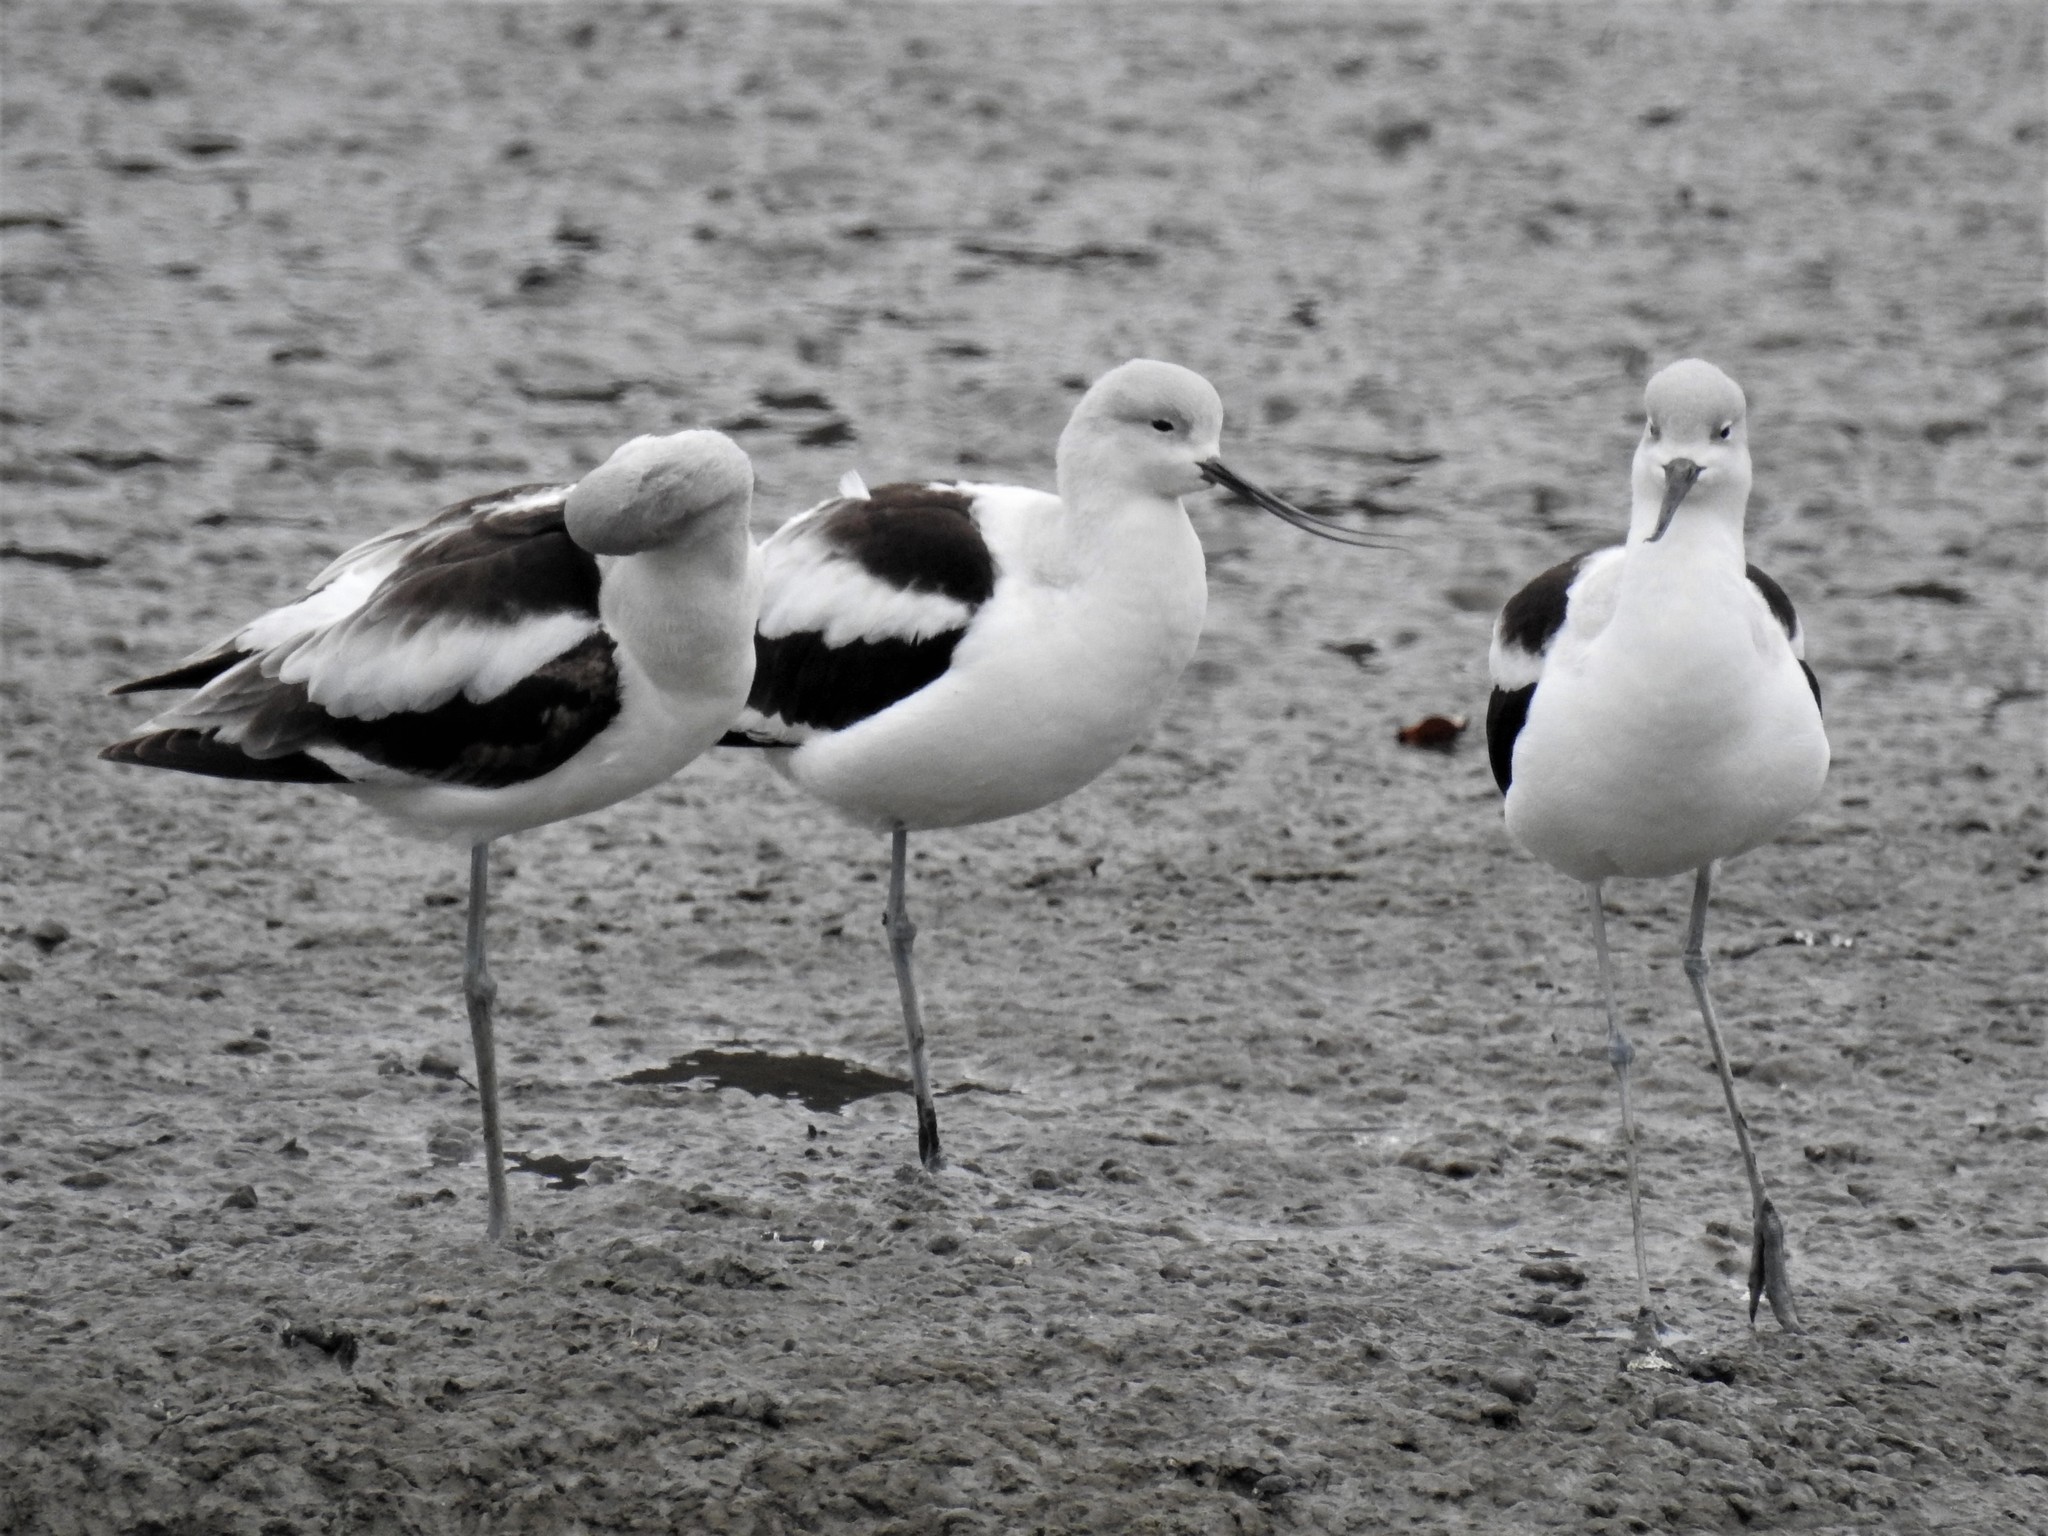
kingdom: Animalia
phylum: Chordata
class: Aves
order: Charadriiformes
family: Recurvirostridae
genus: Recurvirostra
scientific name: Recurvirostra americana
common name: American avocet
